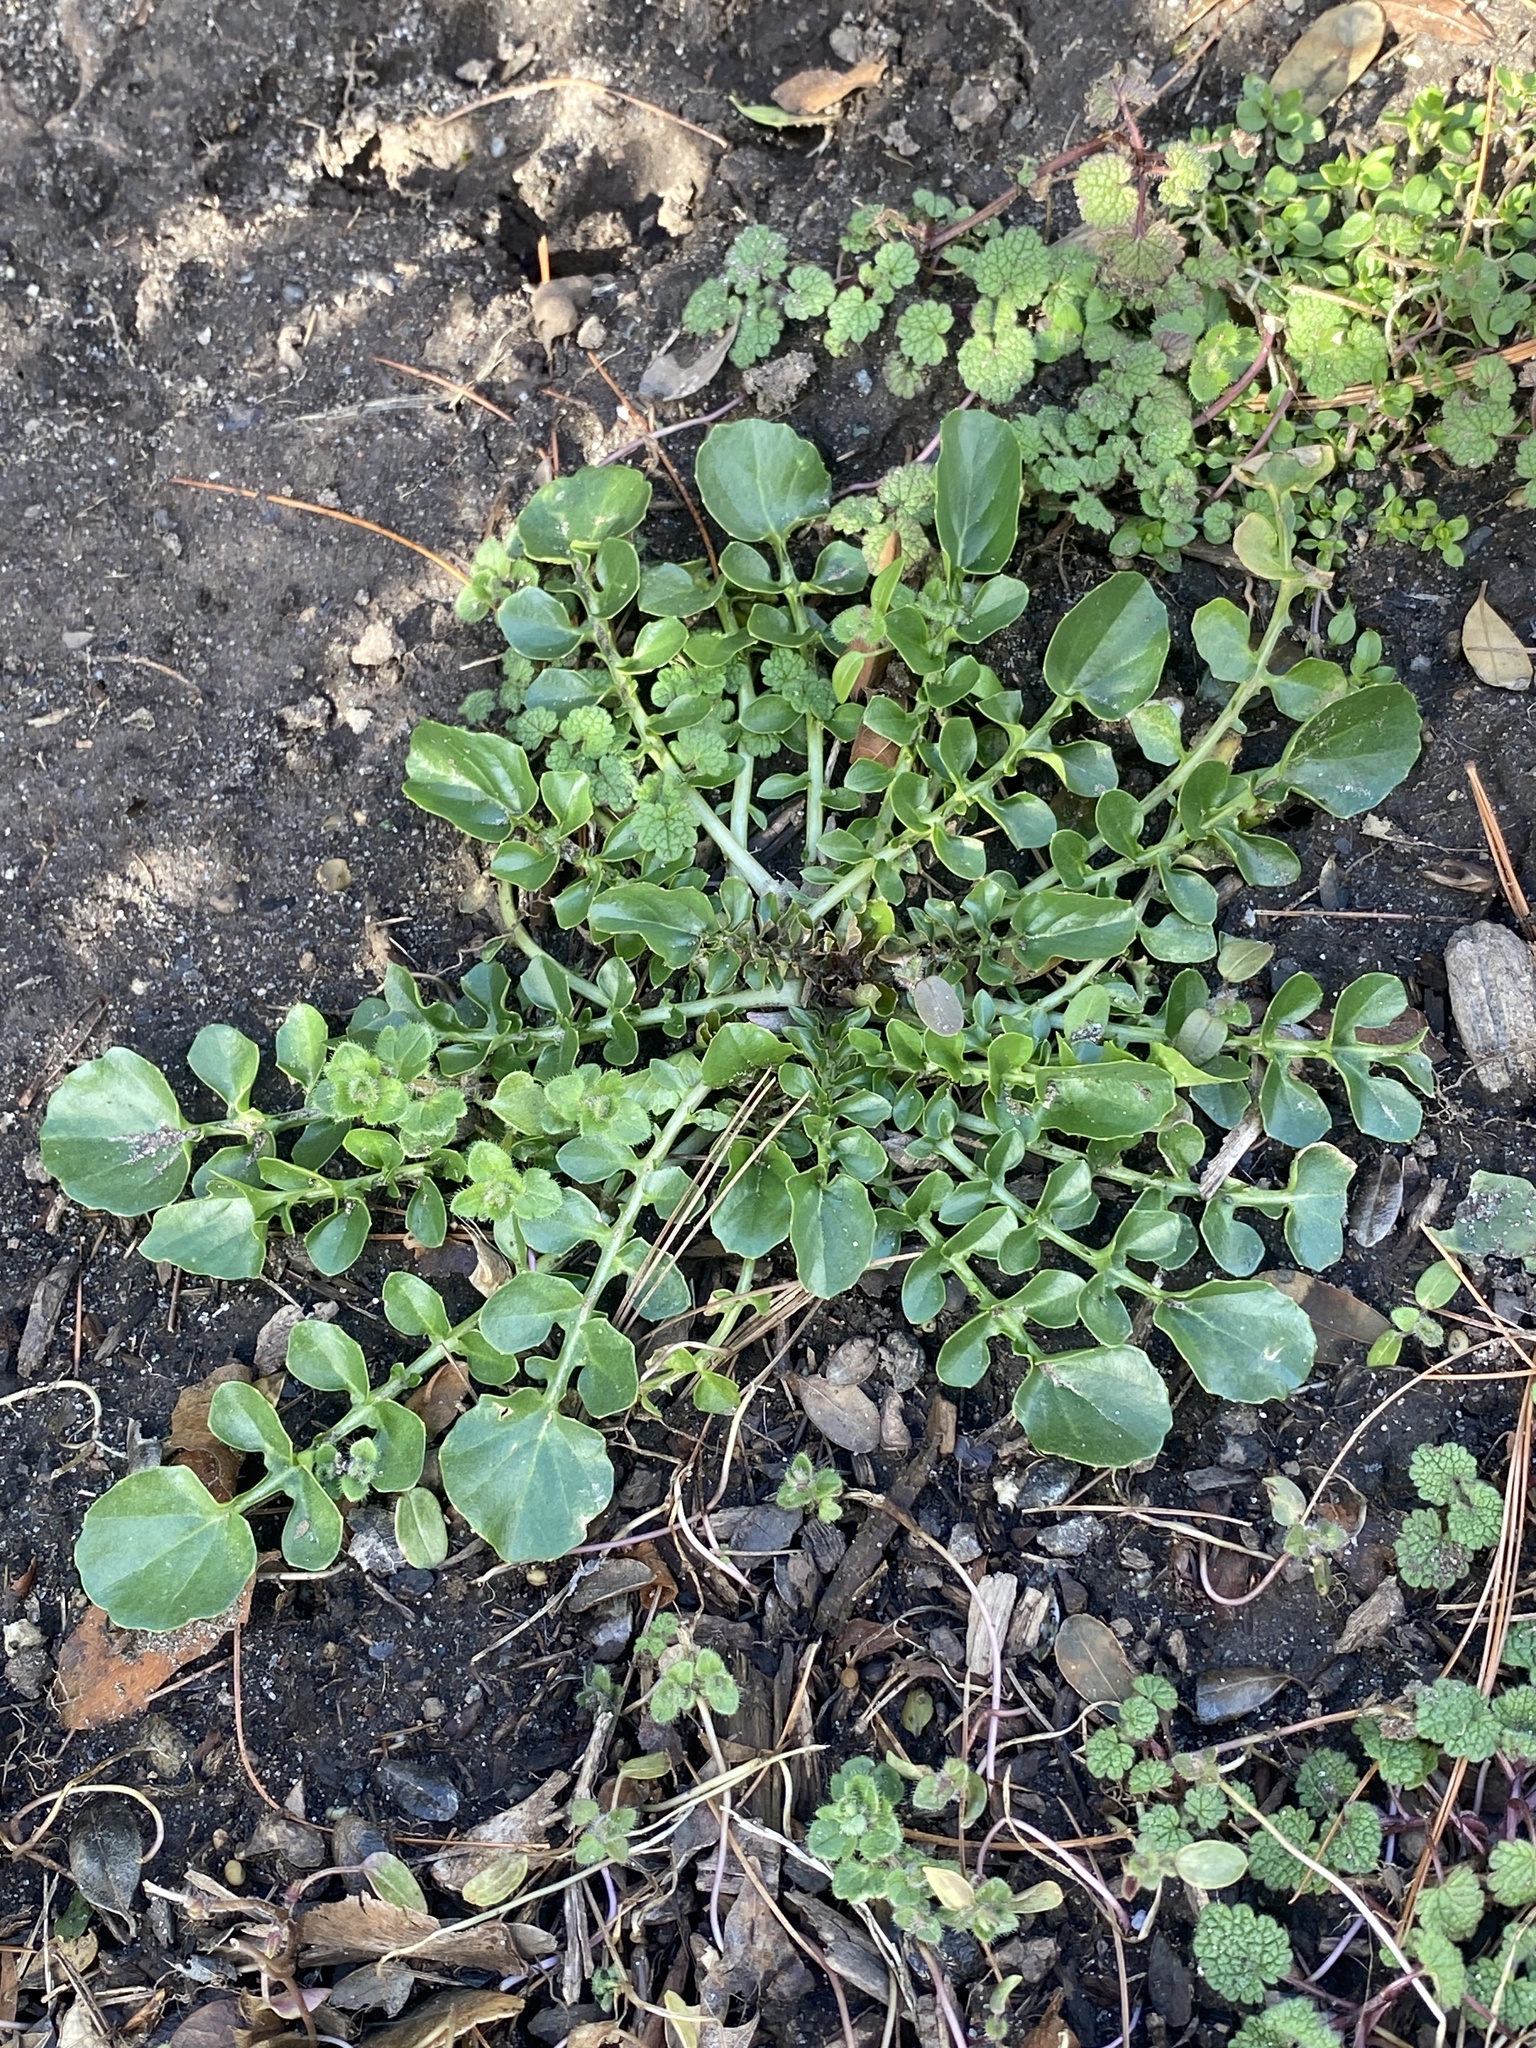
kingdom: Plantae
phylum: Tracheophyta
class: Magnoliopsida
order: Brassicales
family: Brassicaceae
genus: Barbarea
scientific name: Barbarea verna
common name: American cress
